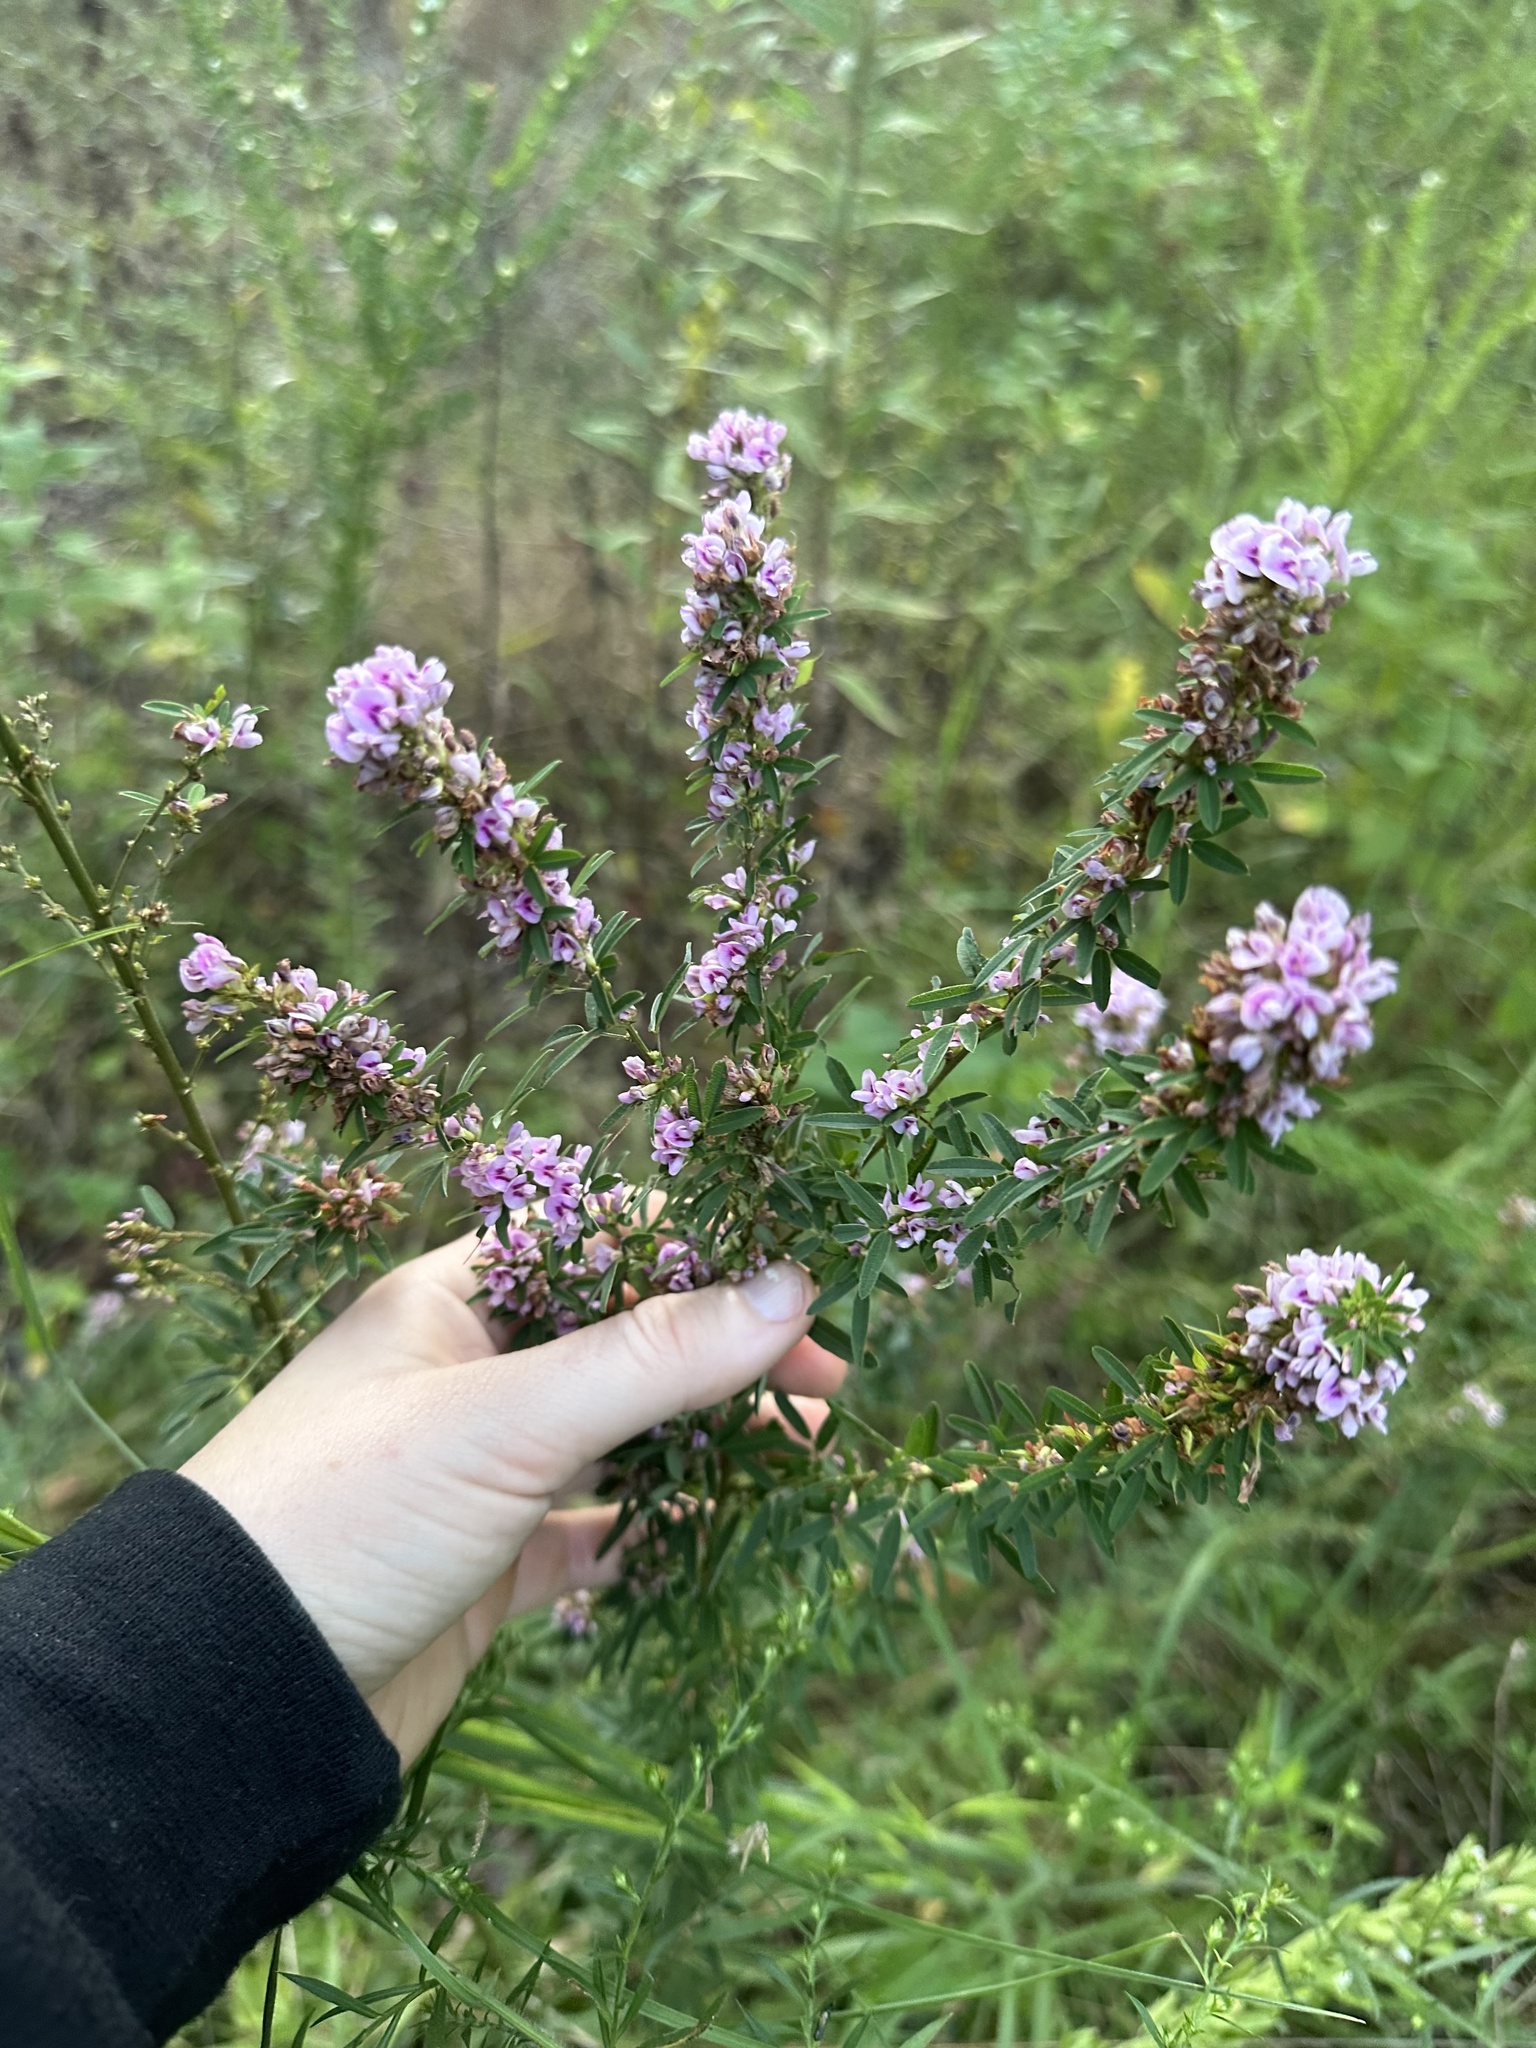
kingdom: Plantae
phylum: Tracheophyta
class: Magnoliopsida
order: Fabales
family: Fabaceae
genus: Lespedeza
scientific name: Lespedeza virginica
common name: Slender bush-clover
